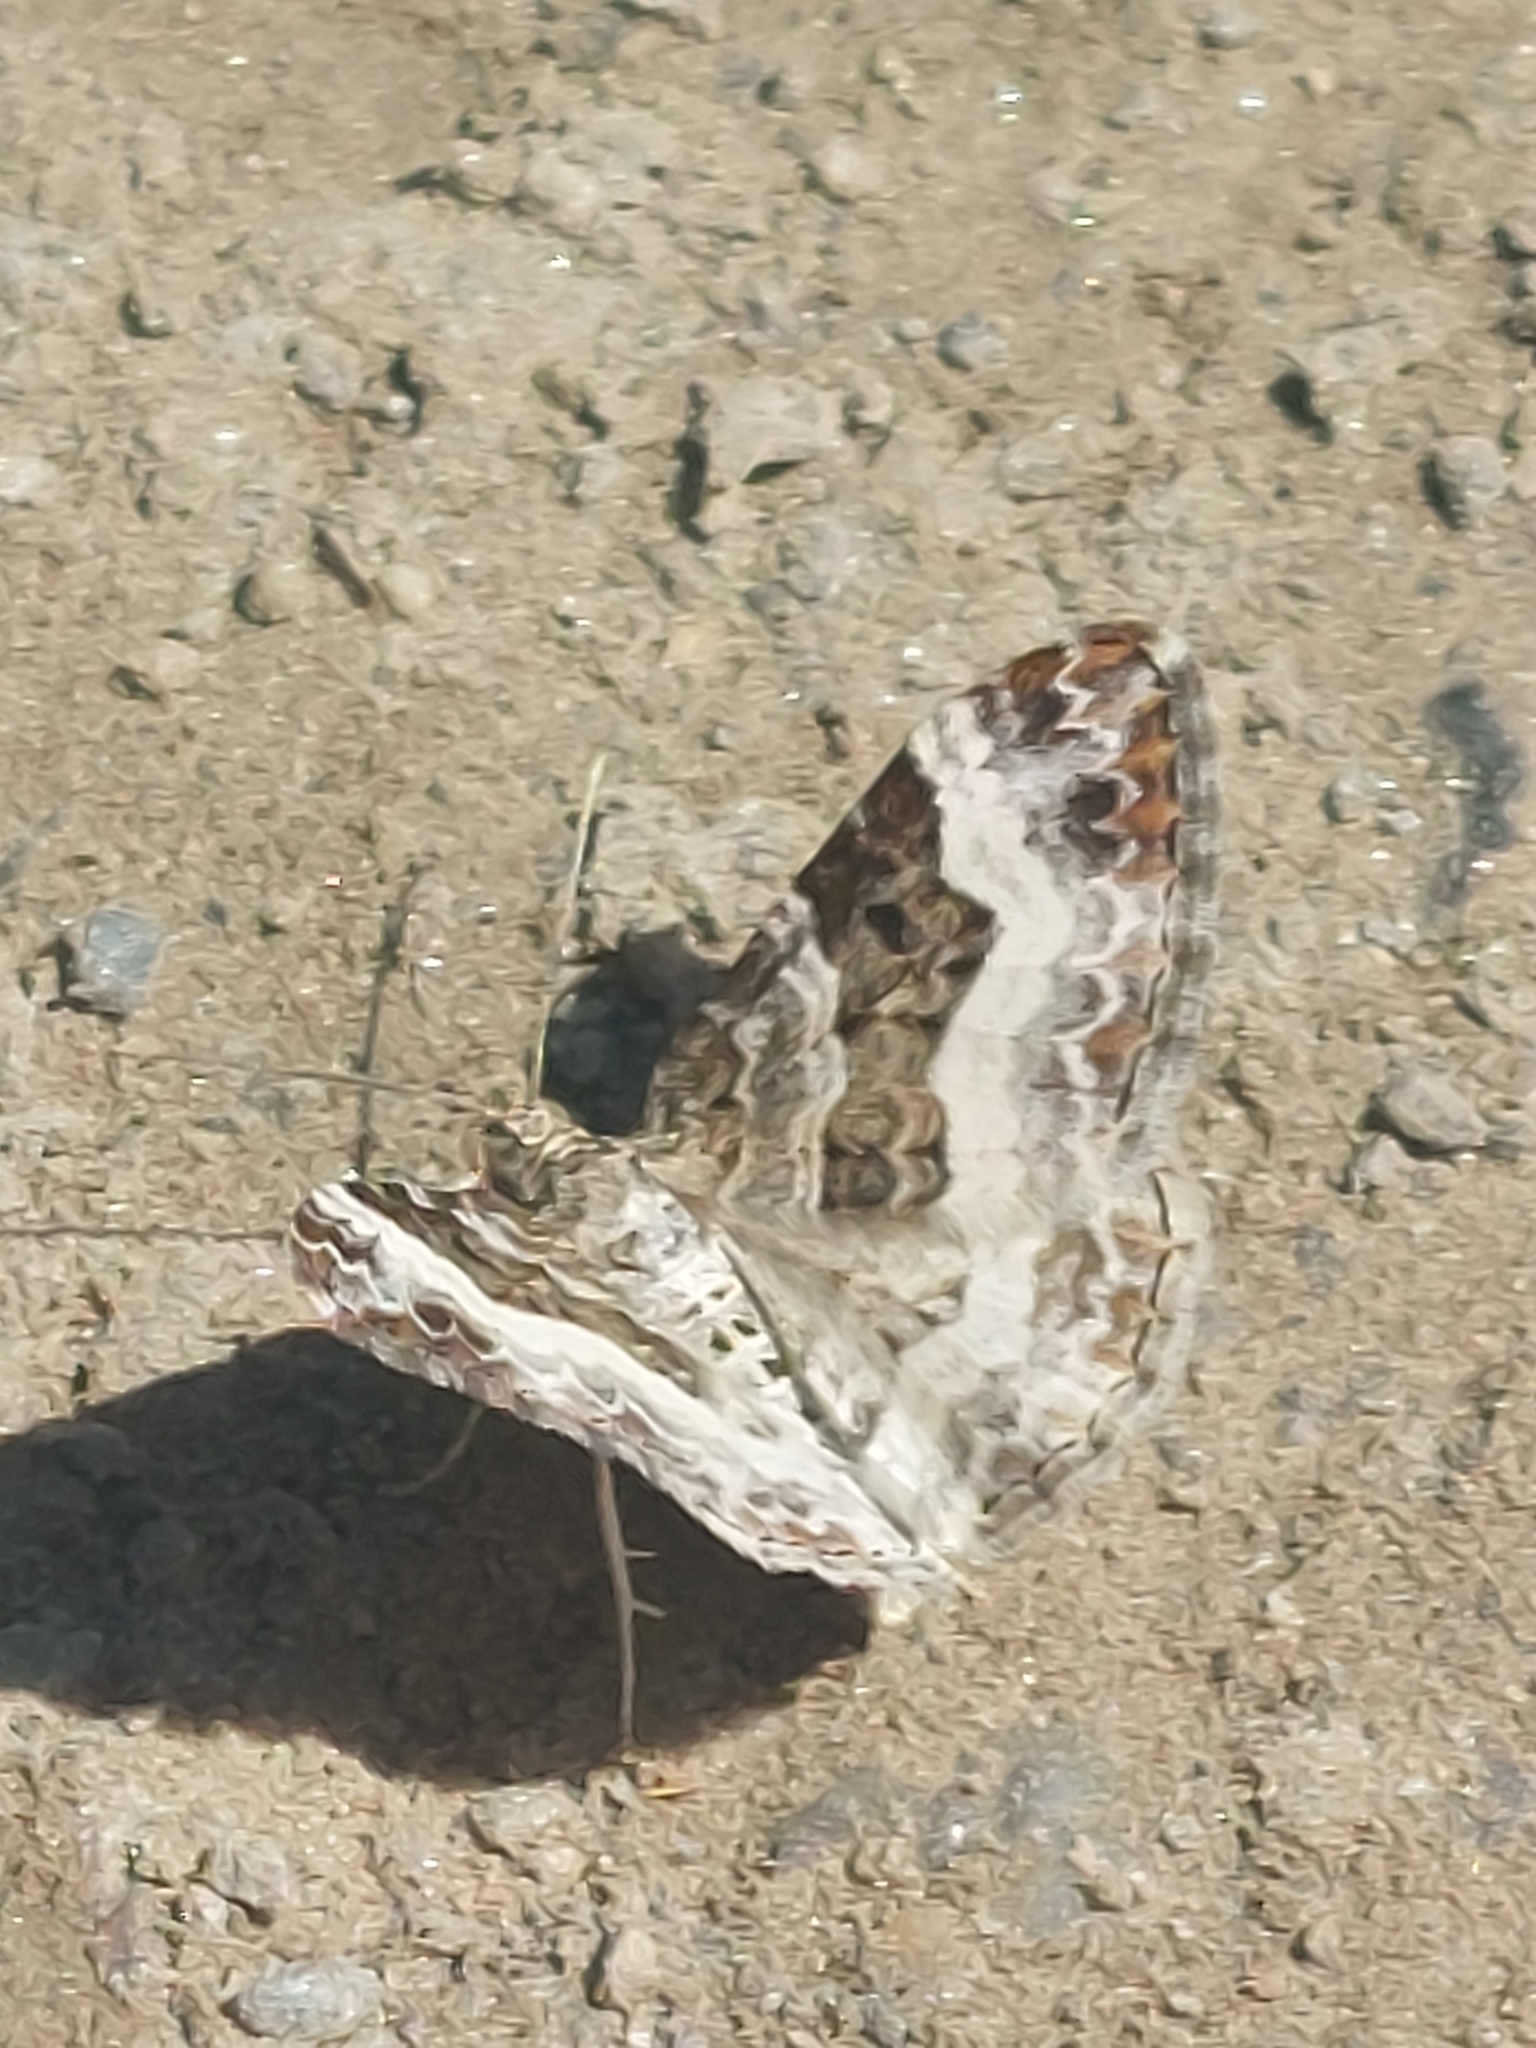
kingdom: Animalia
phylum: Arthropoda
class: Insecta
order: Lepidoptera
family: Geometridae
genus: Epirrhoe
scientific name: Epirrhoe alternata
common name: Common carpet
